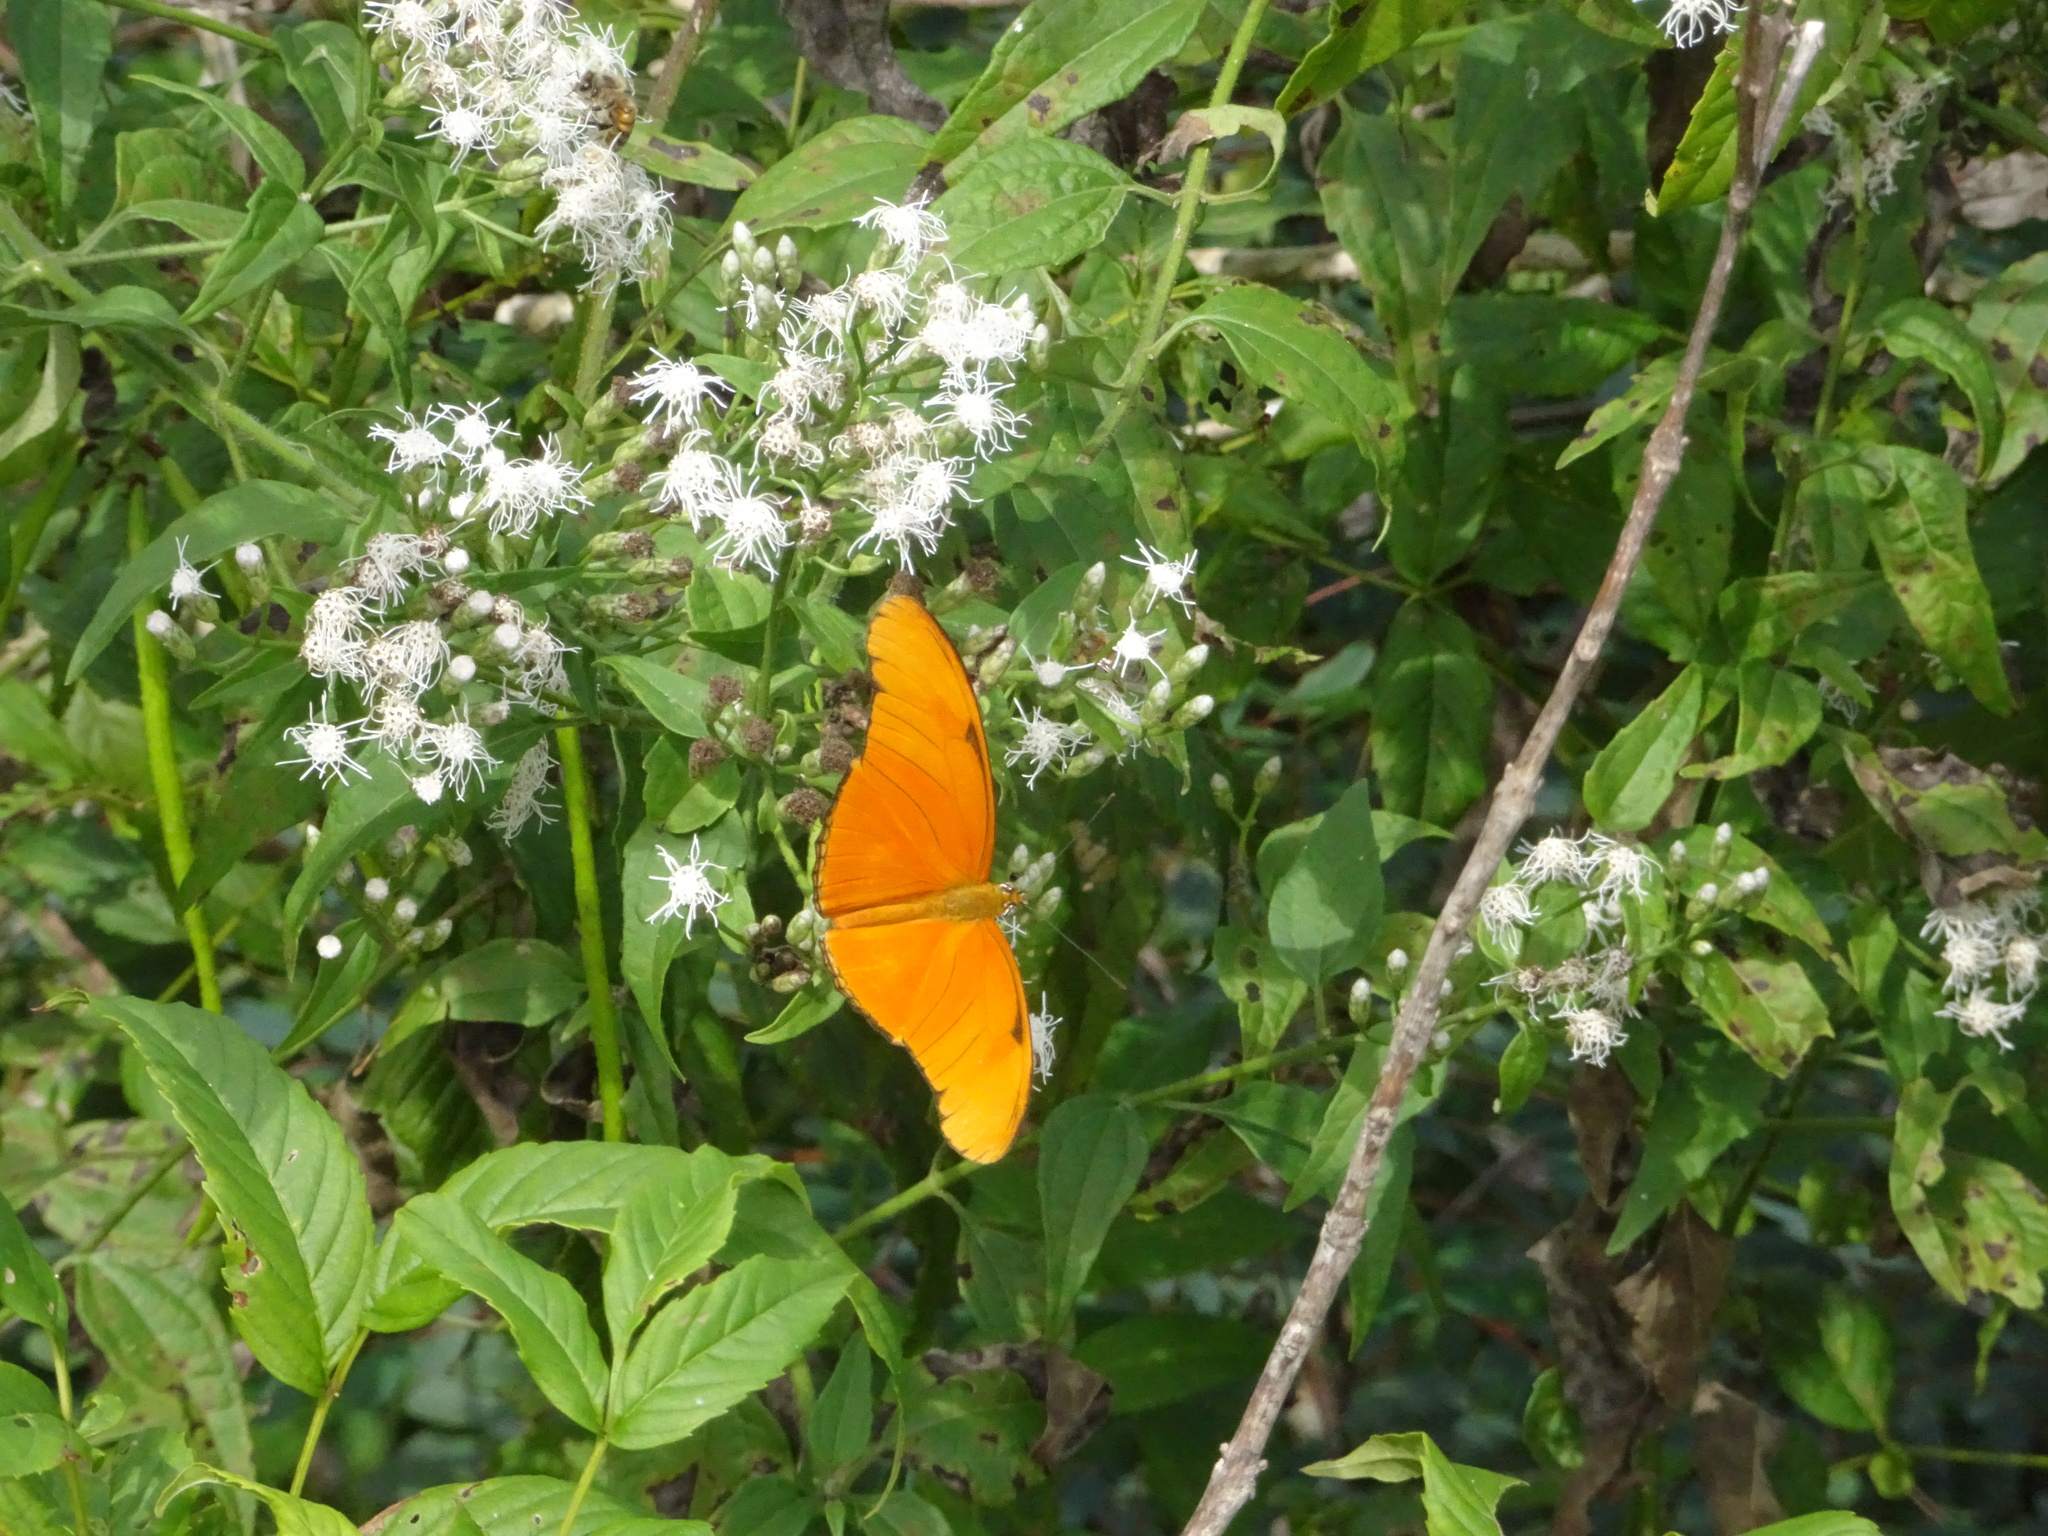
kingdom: Animalia
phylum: Arthropoda
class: Insecta
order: Lepidoptera
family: Nymphalidae
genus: Dryas
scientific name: Dryas iulia
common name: Flambeau
